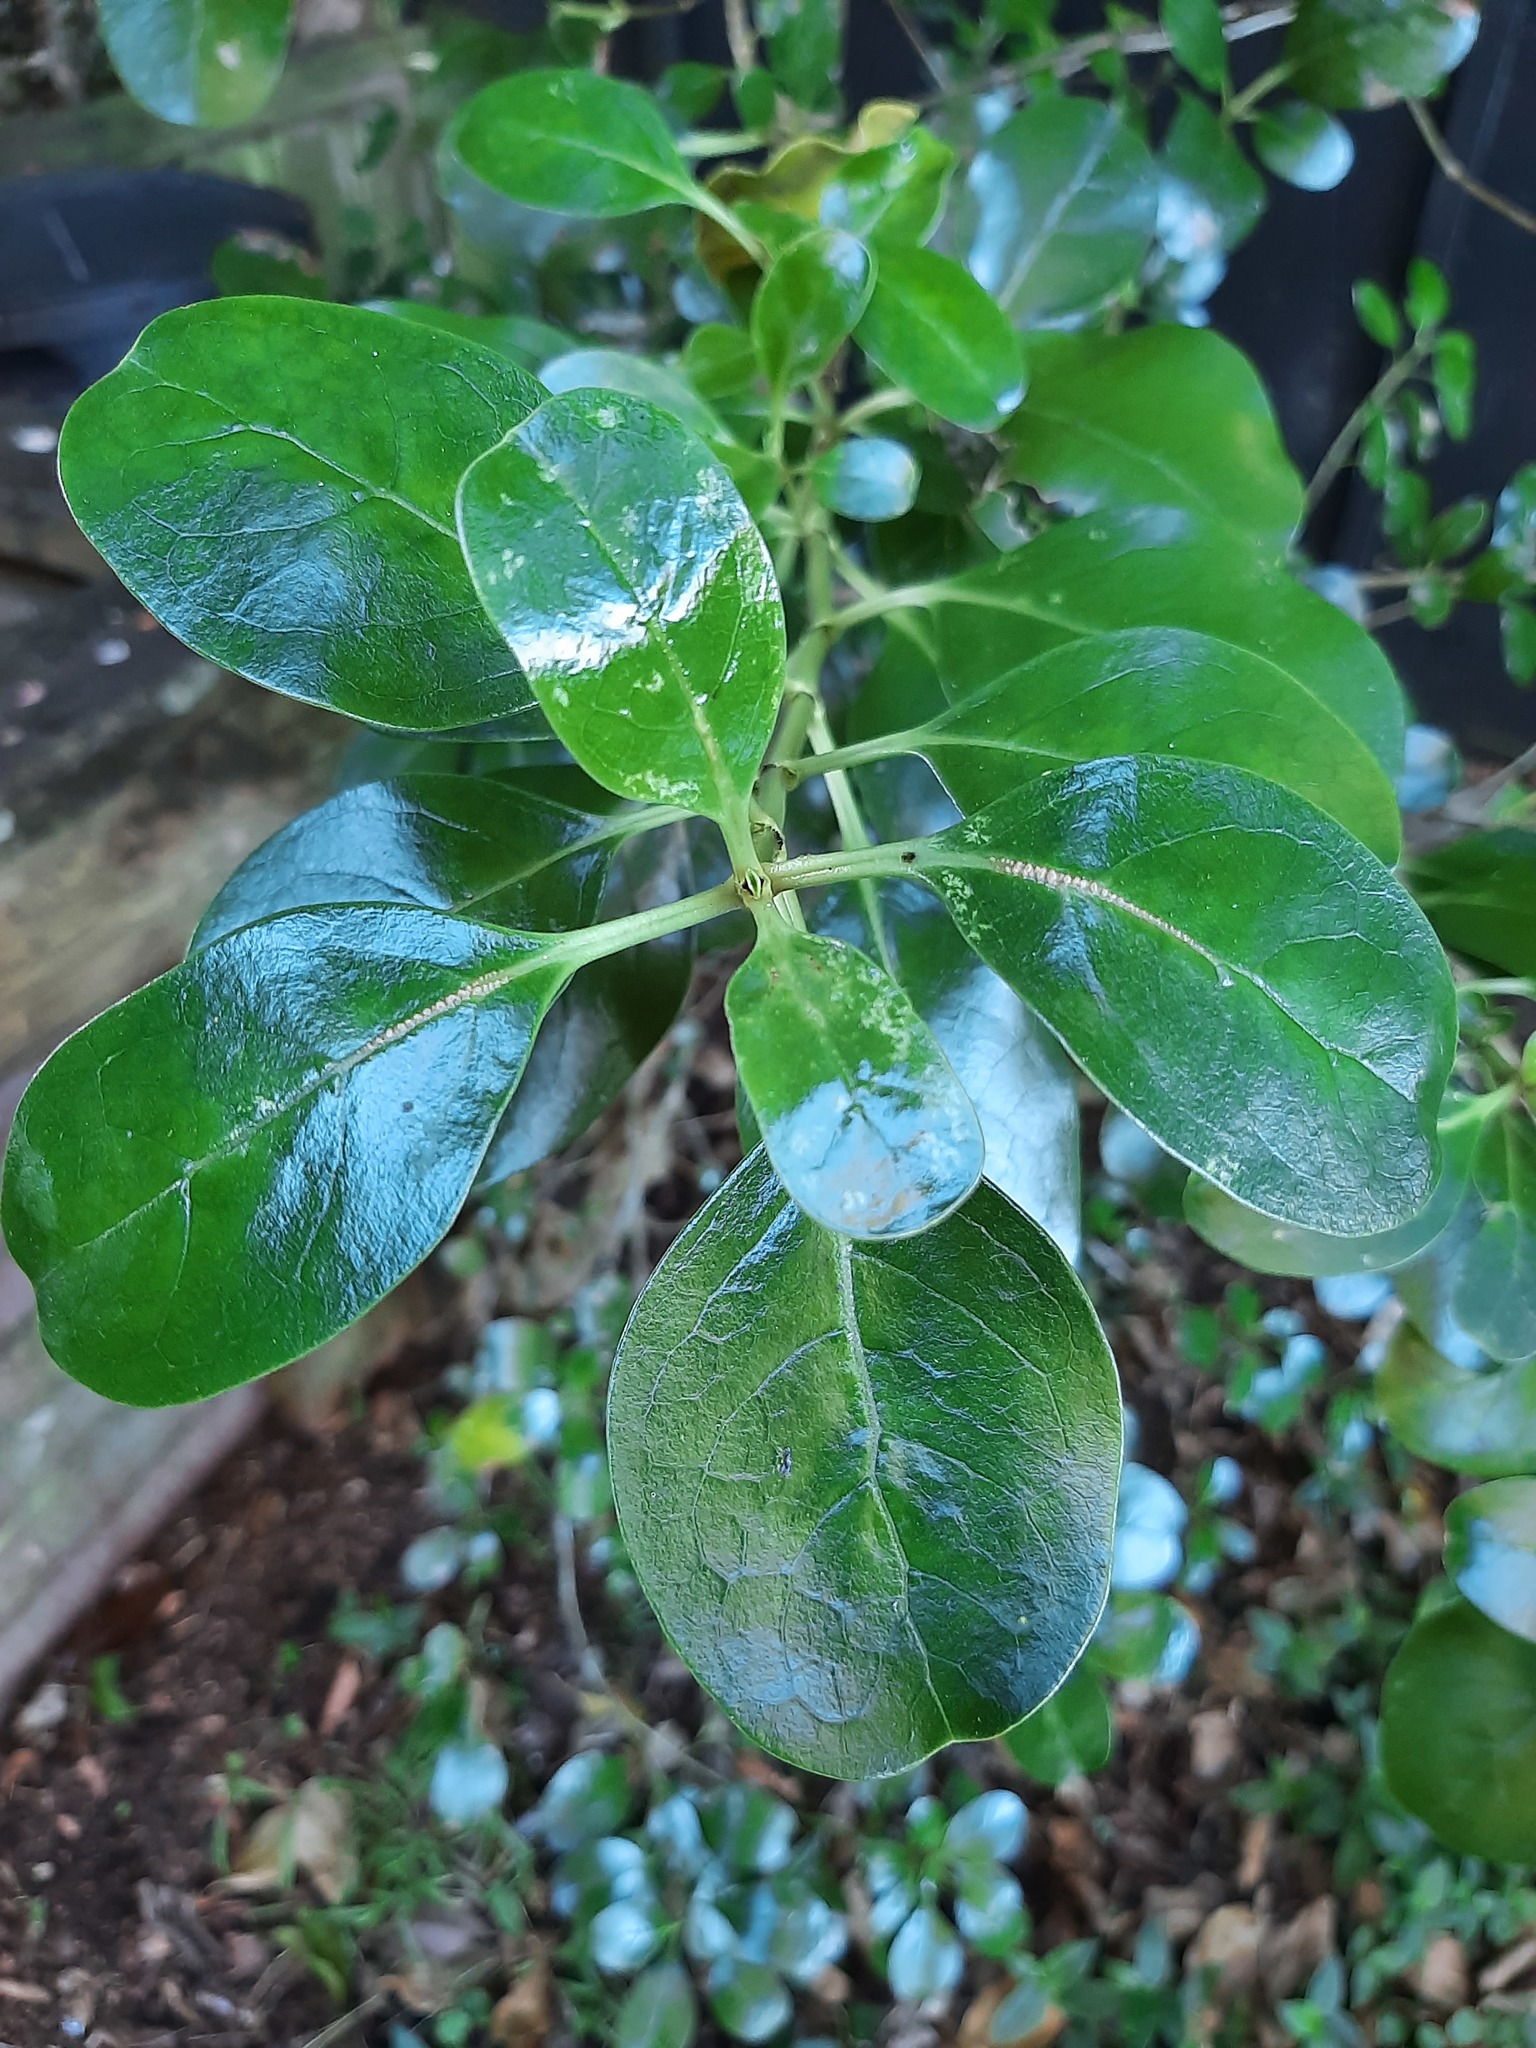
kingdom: Plantae
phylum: Tracheophyta
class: Magnoliopsida
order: Gentianales
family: Rubiaceae
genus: Coprosma
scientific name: Coprosma repens
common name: Tree bedstraw
